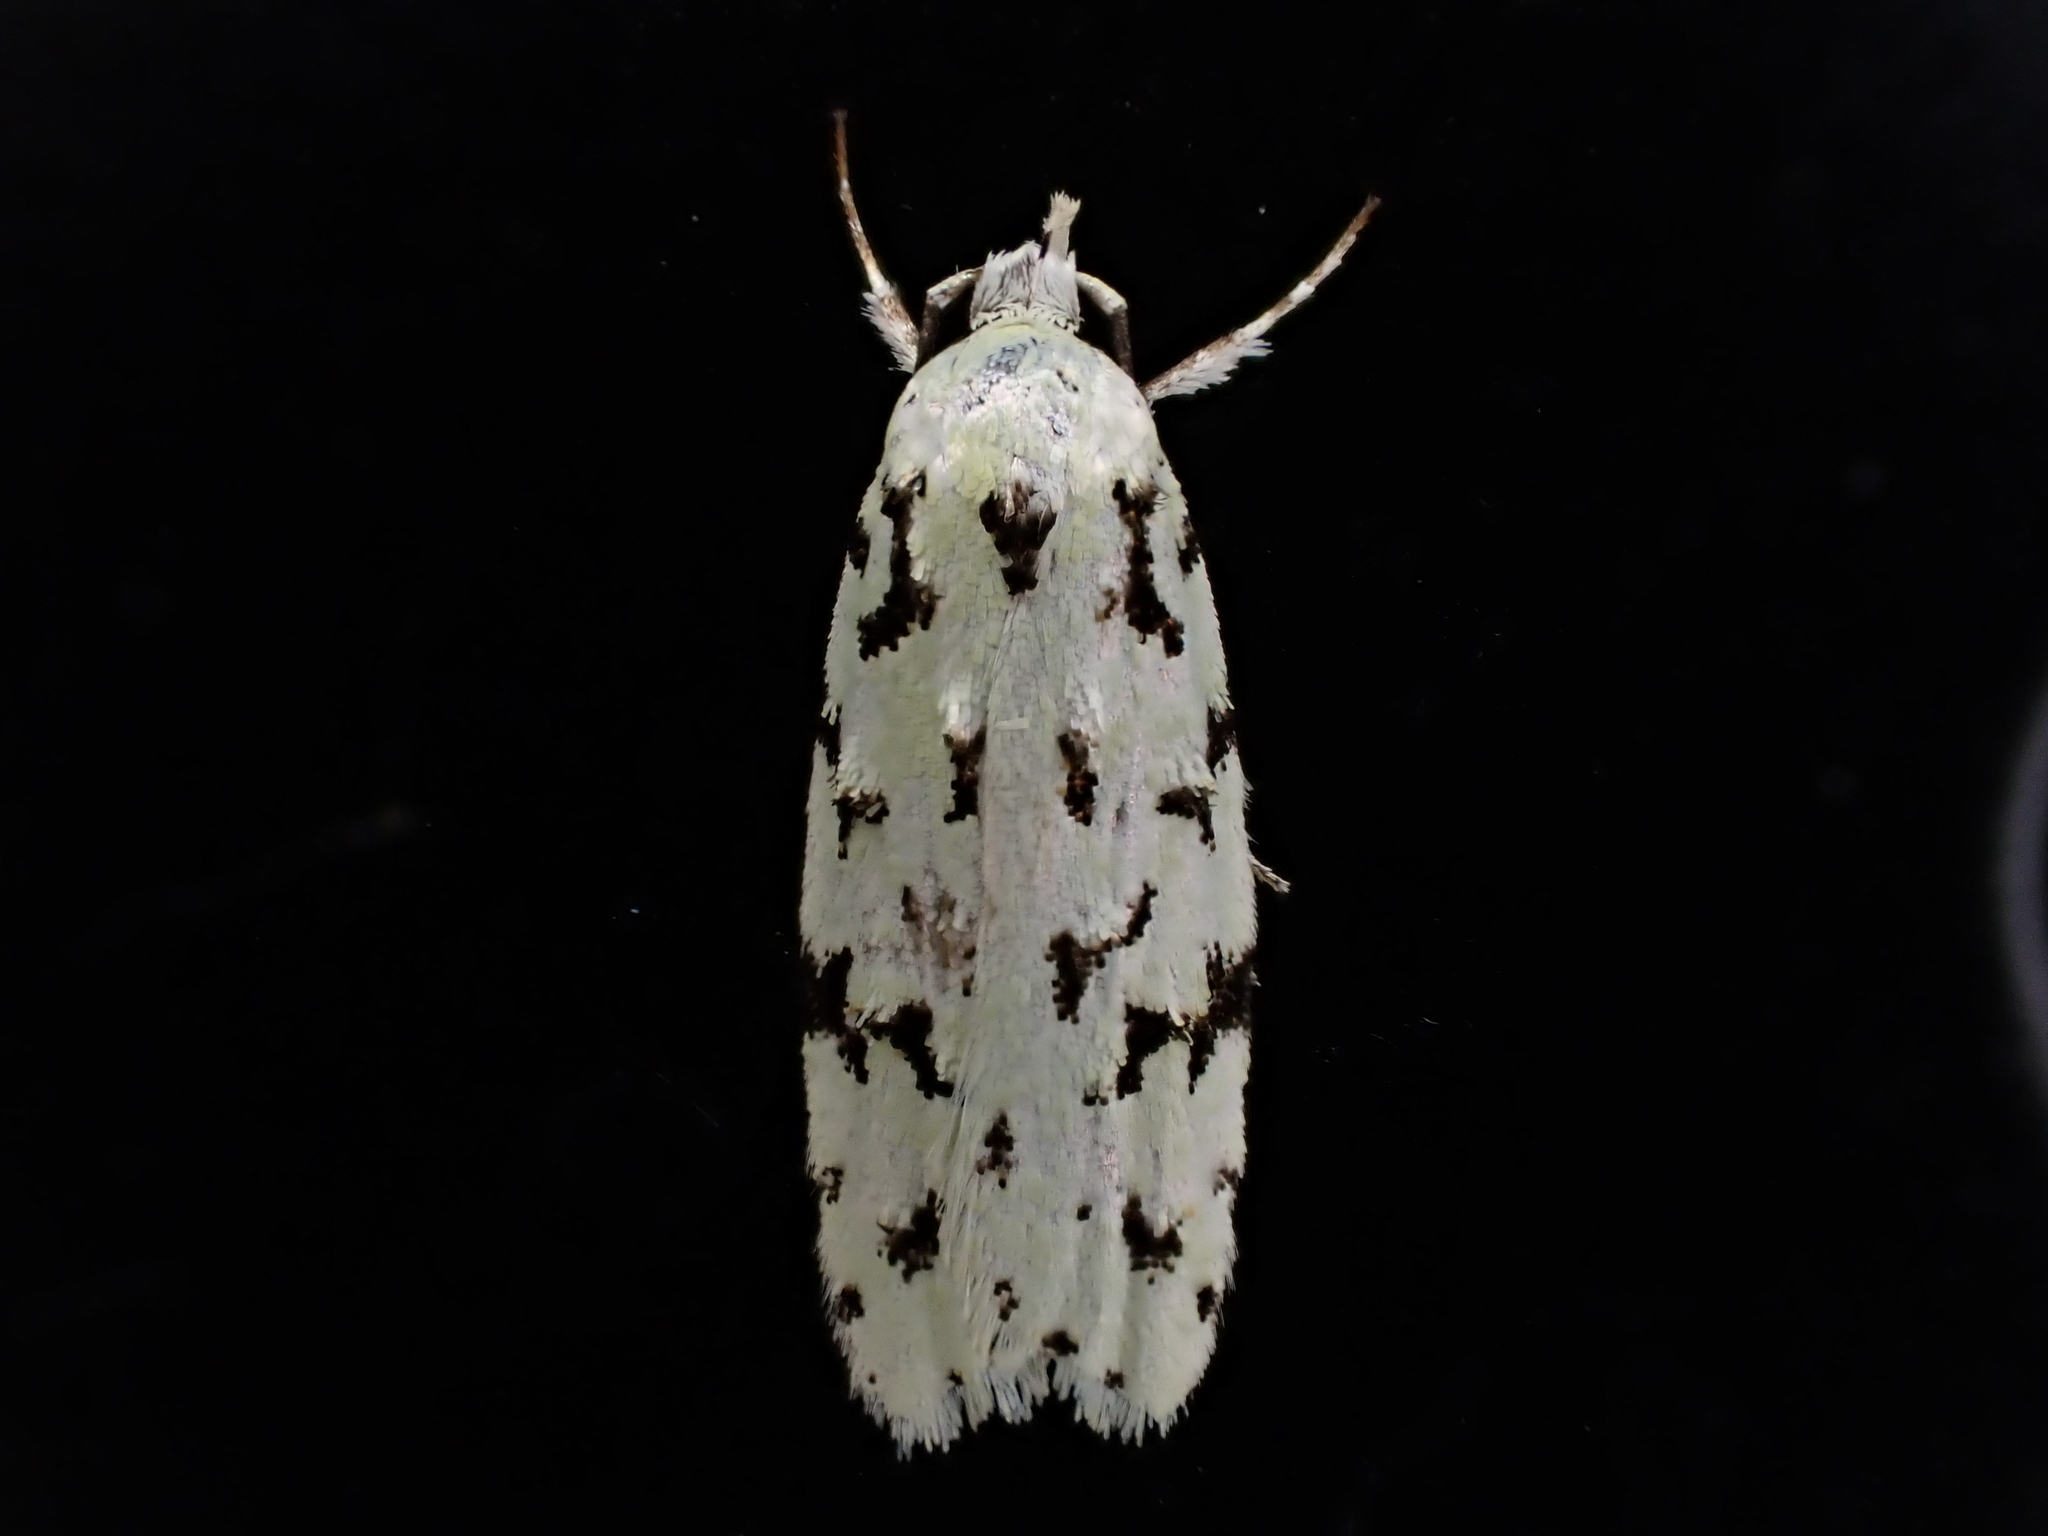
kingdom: Animalia
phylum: Arthropoda
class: Insecta
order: Lepidoptera
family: Oecophoridae
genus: Izatha
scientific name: Izatha peroneanella
